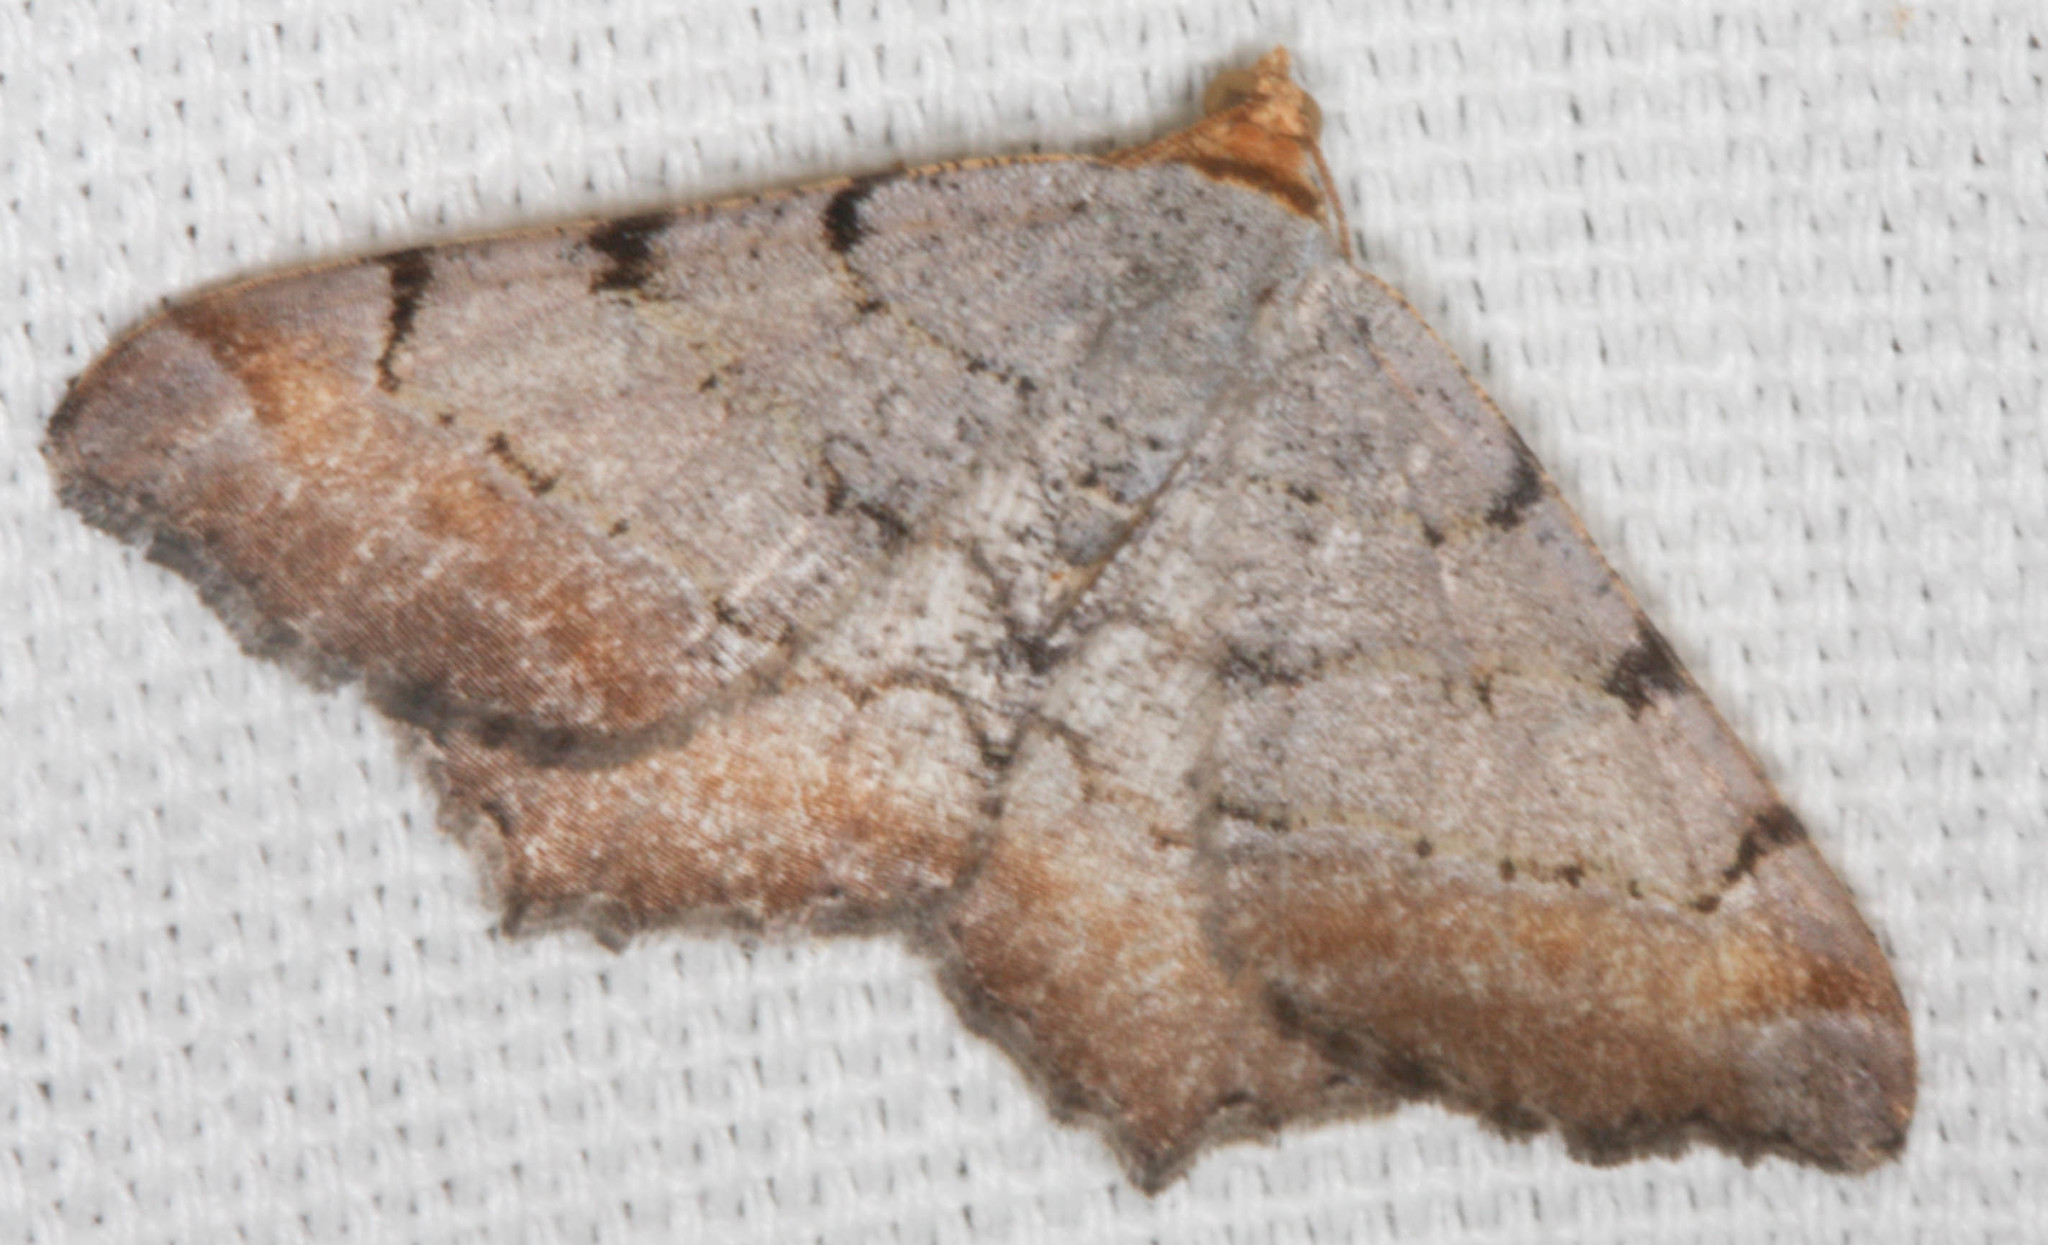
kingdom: Animalia
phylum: Arthropoda
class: Insecta
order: Lepidoptera
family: Geometridae
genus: Macaria
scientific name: Macaria adonis
